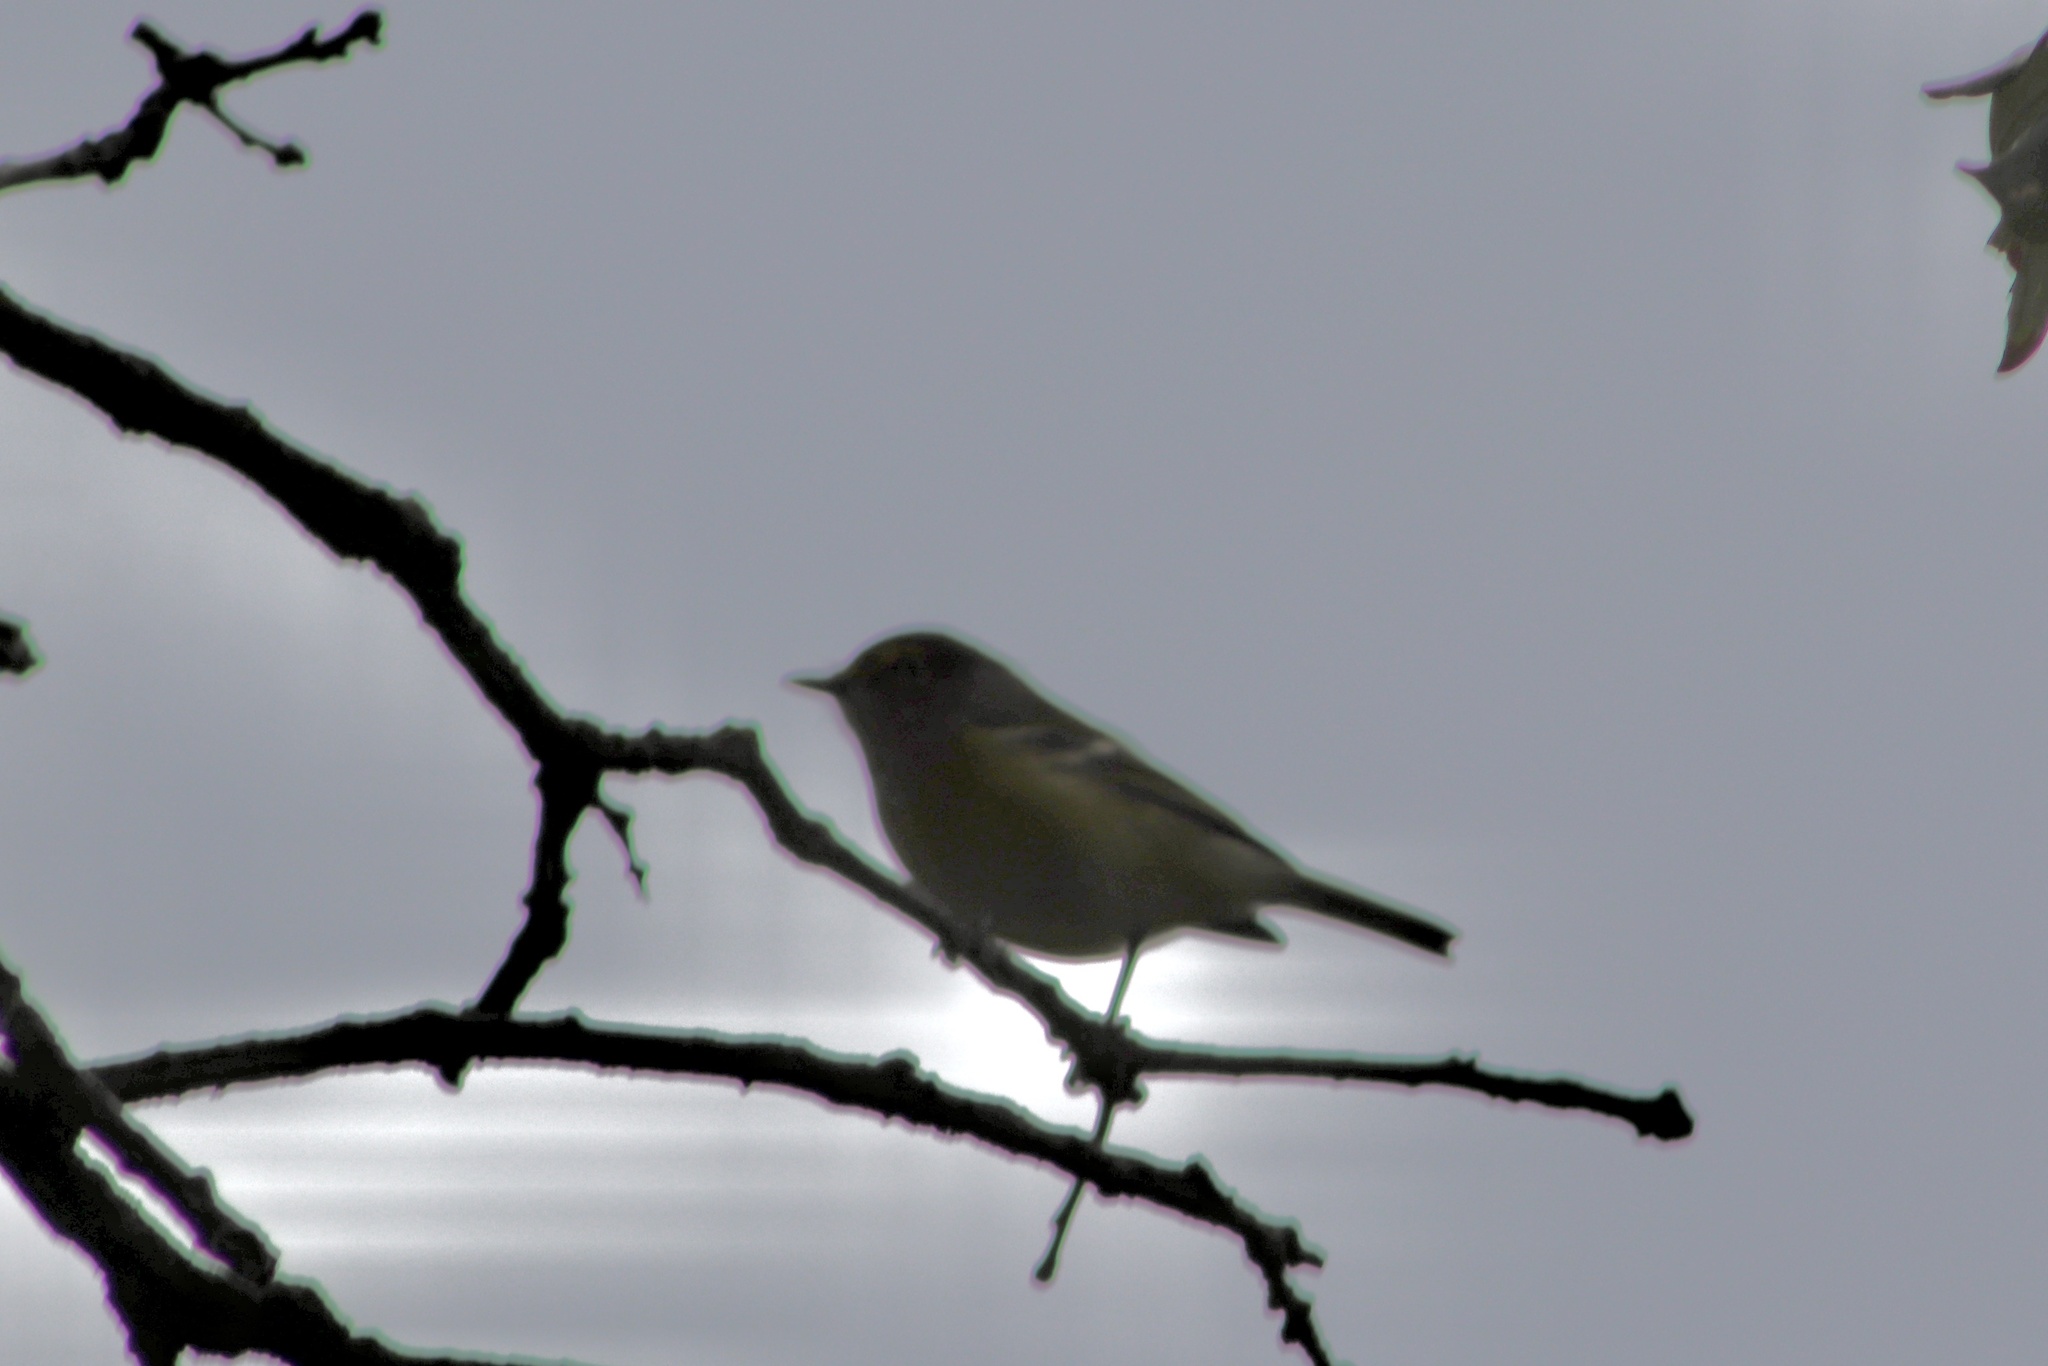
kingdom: Animalia
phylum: Chordata
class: Aves
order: Passeriformes
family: Vireonidae
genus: Vireo
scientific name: Vireo griseus
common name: White-eyed vireo
